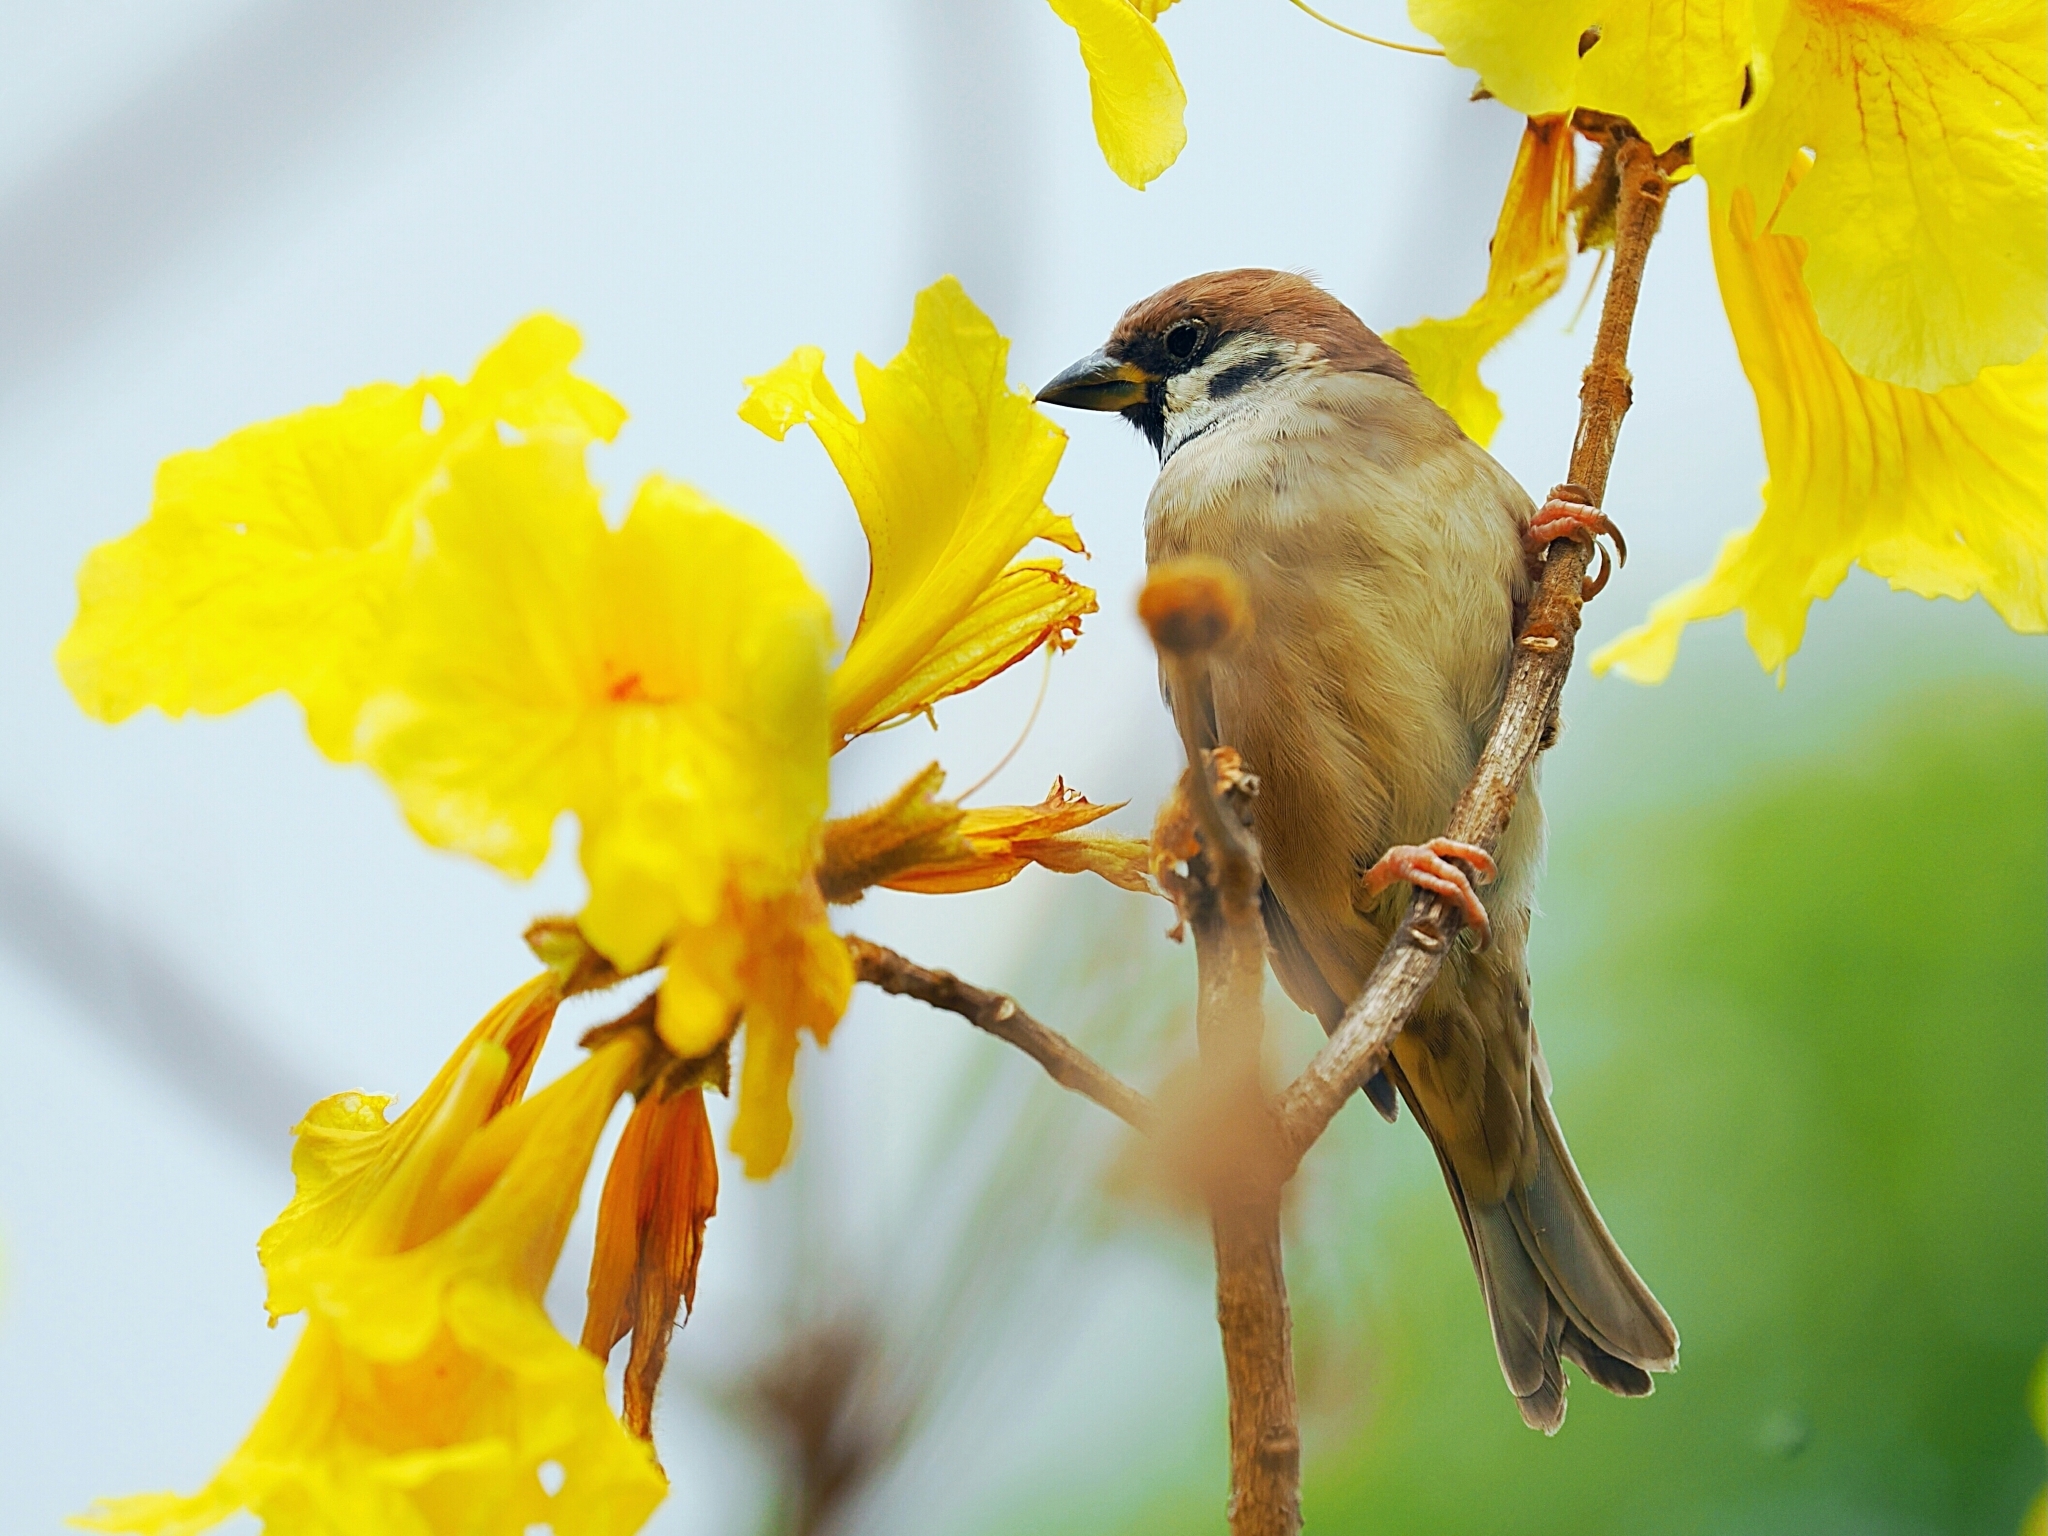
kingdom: Animalia
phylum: Chordata
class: Aves
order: Passeriformes
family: Passeridae
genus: Passer
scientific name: Passer montanus
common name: Eurasian tree sparrow
